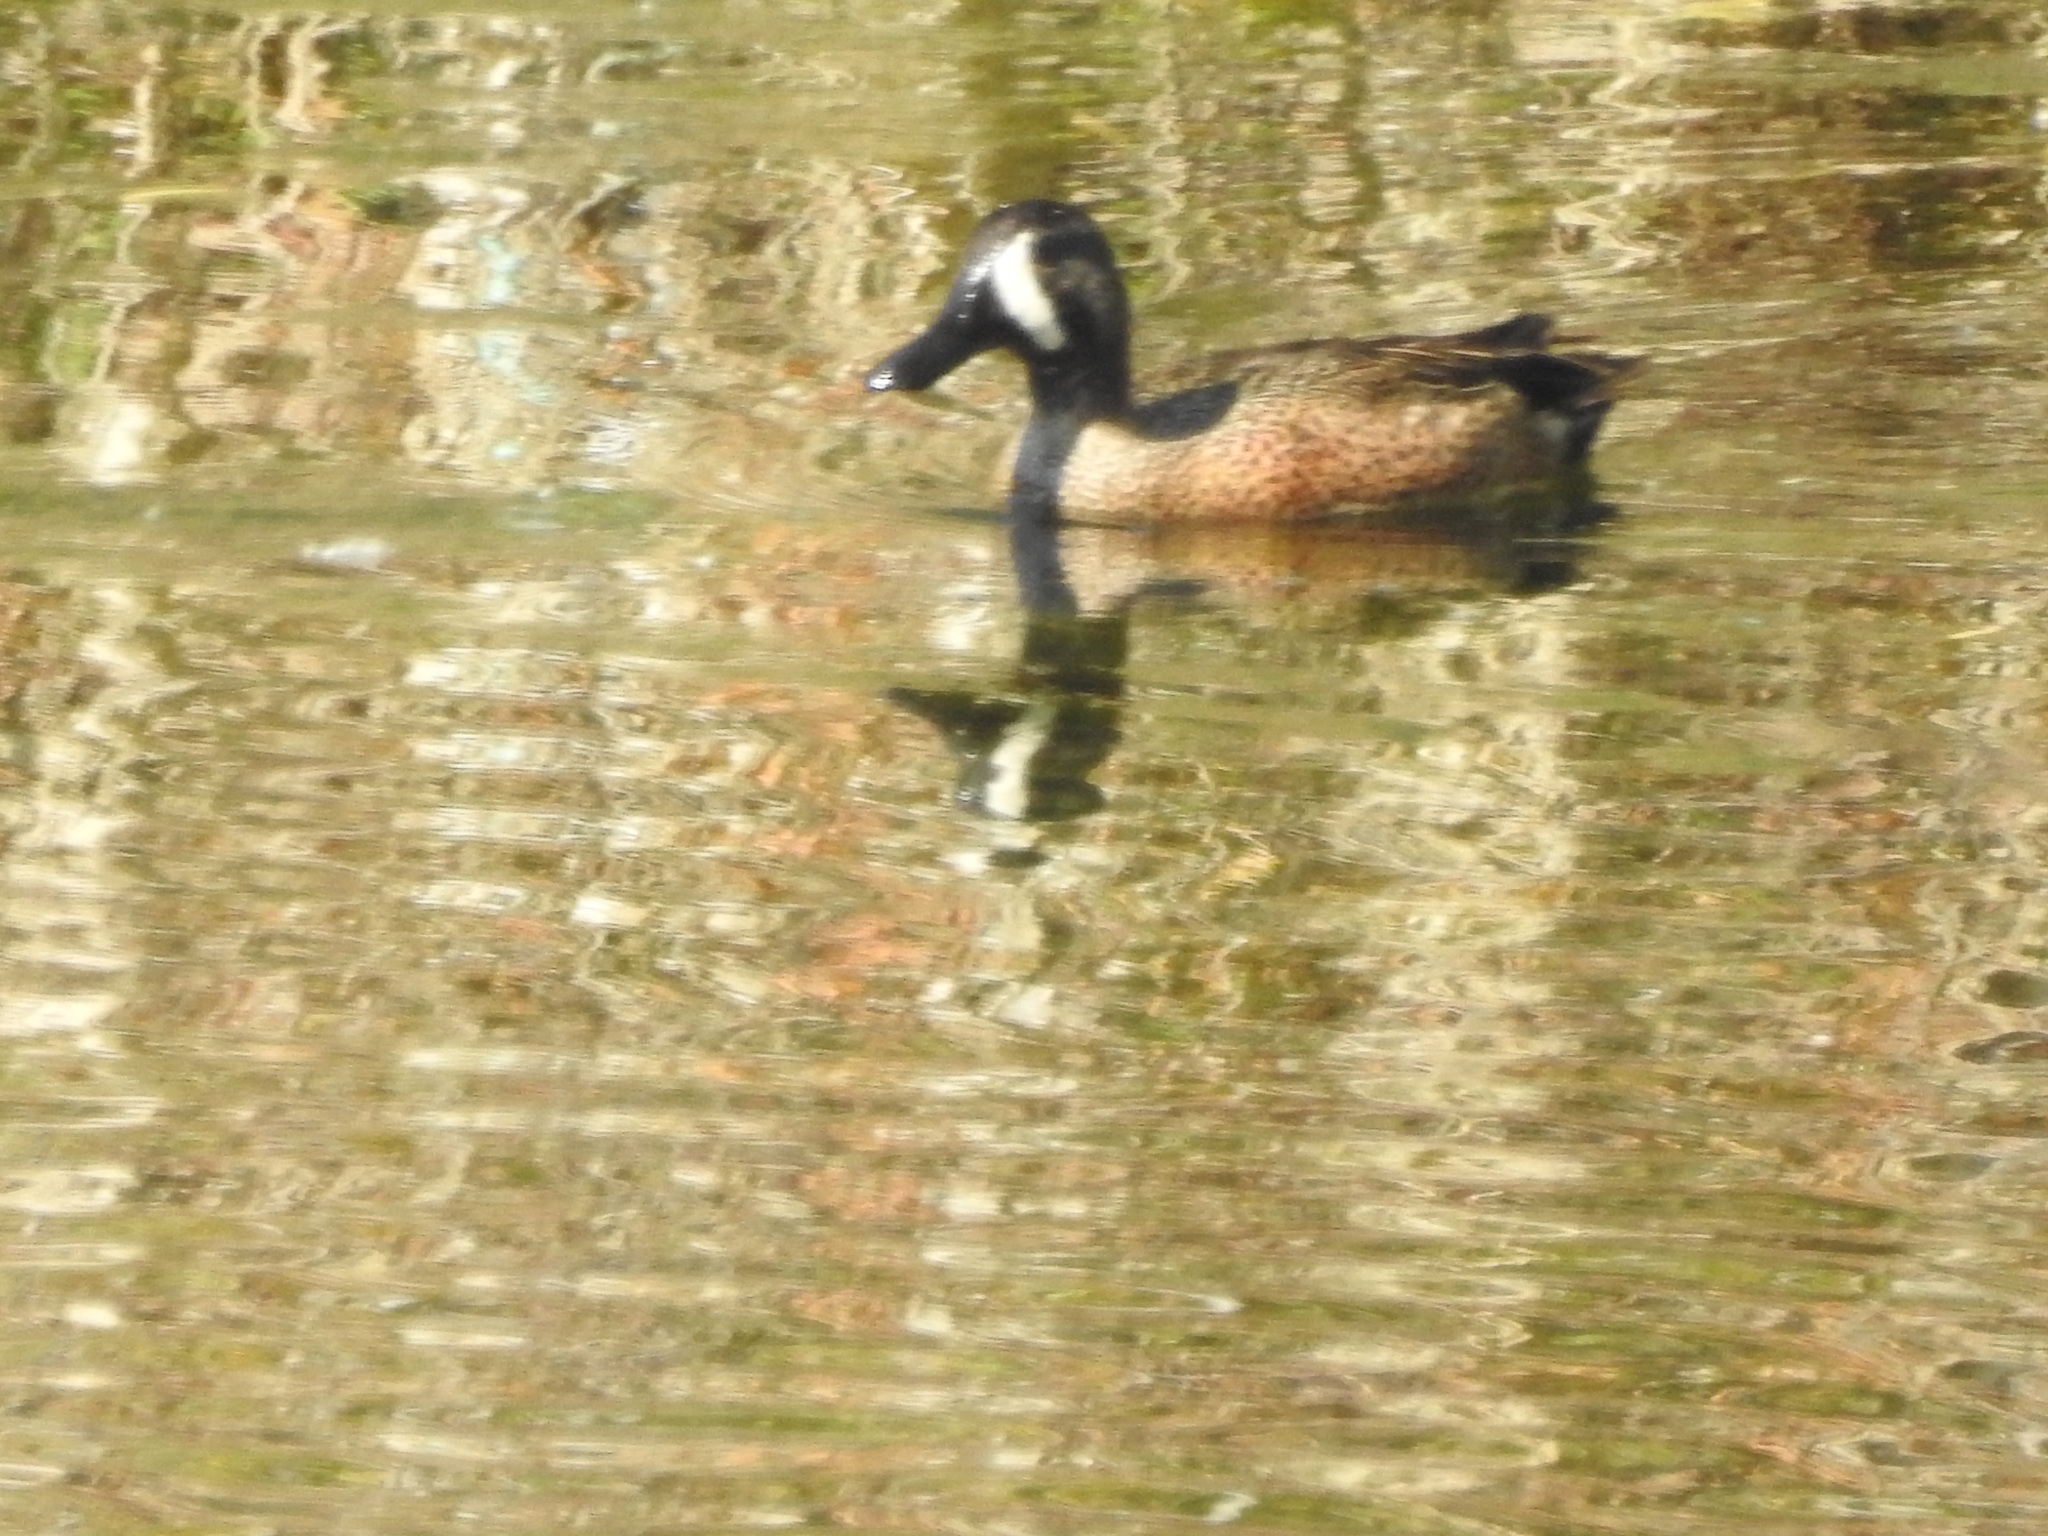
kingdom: Animalia
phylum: Chordata
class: Aves
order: Anseriformes
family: Anatidae
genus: Spatula
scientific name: Spatula discors
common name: Blue-winged teal
